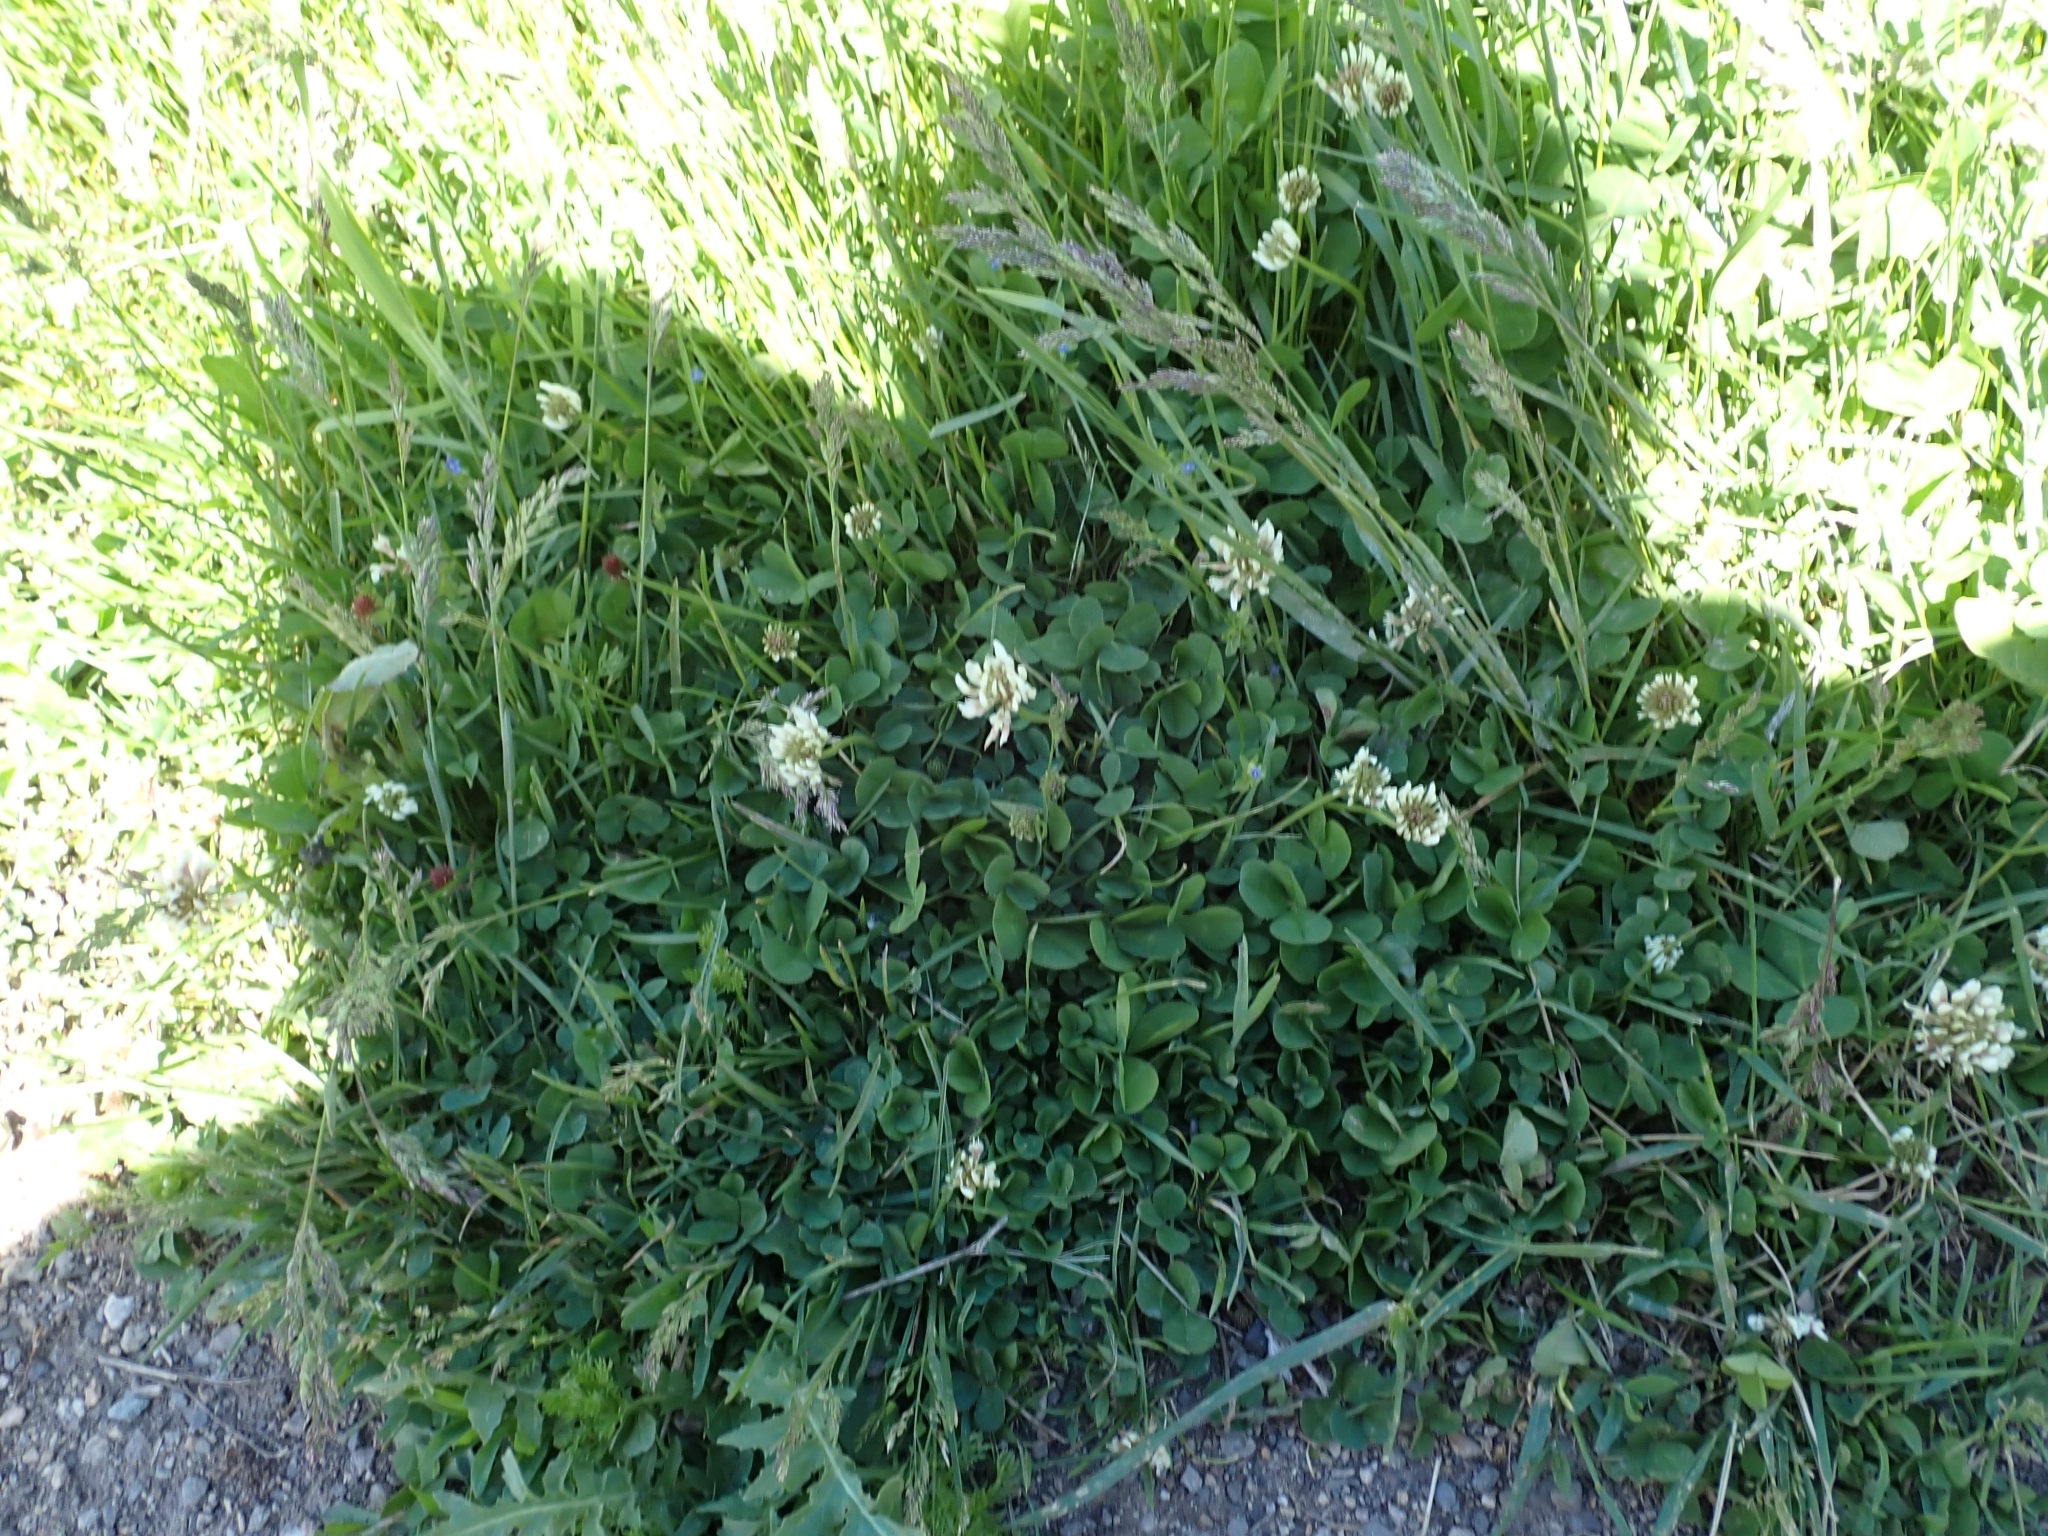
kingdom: Plantae
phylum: Tracheophyta
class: Magnoliopsida
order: Fabales
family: Fabaceae
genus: Trifolium
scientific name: Trifolium repens
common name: White clover
